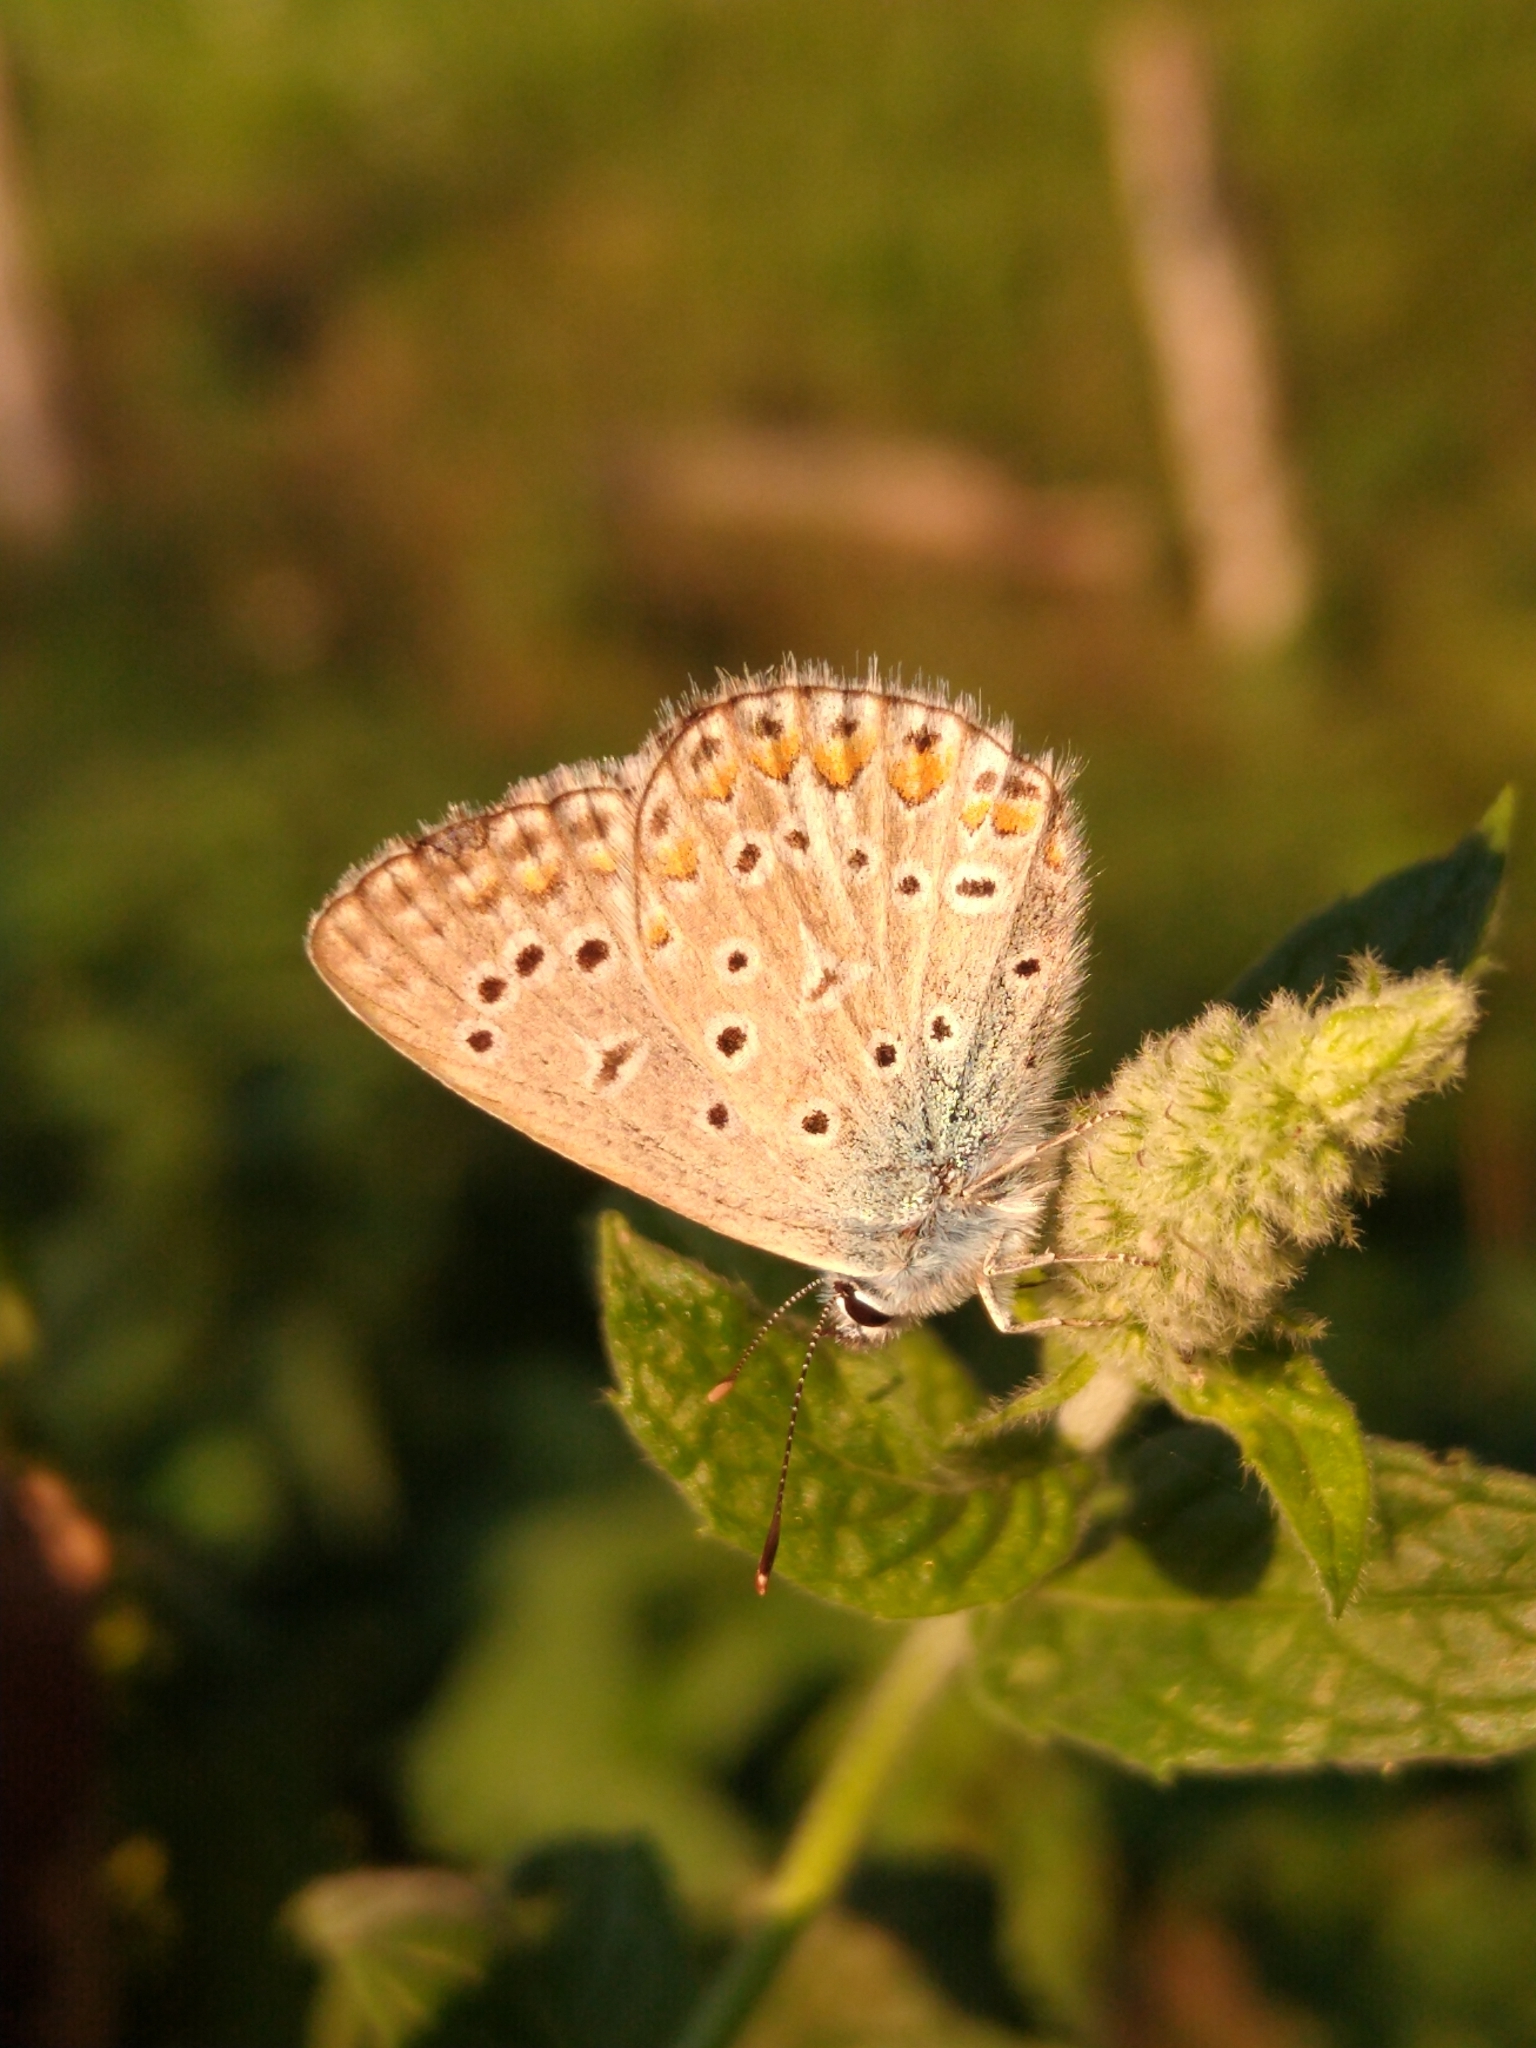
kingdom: Animalia
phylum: Arthropoda
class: Insecta
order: Lepidoptera
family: Lycaenidae
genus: Polyommatus
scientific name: Polyommatus icarus
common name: Common blue
